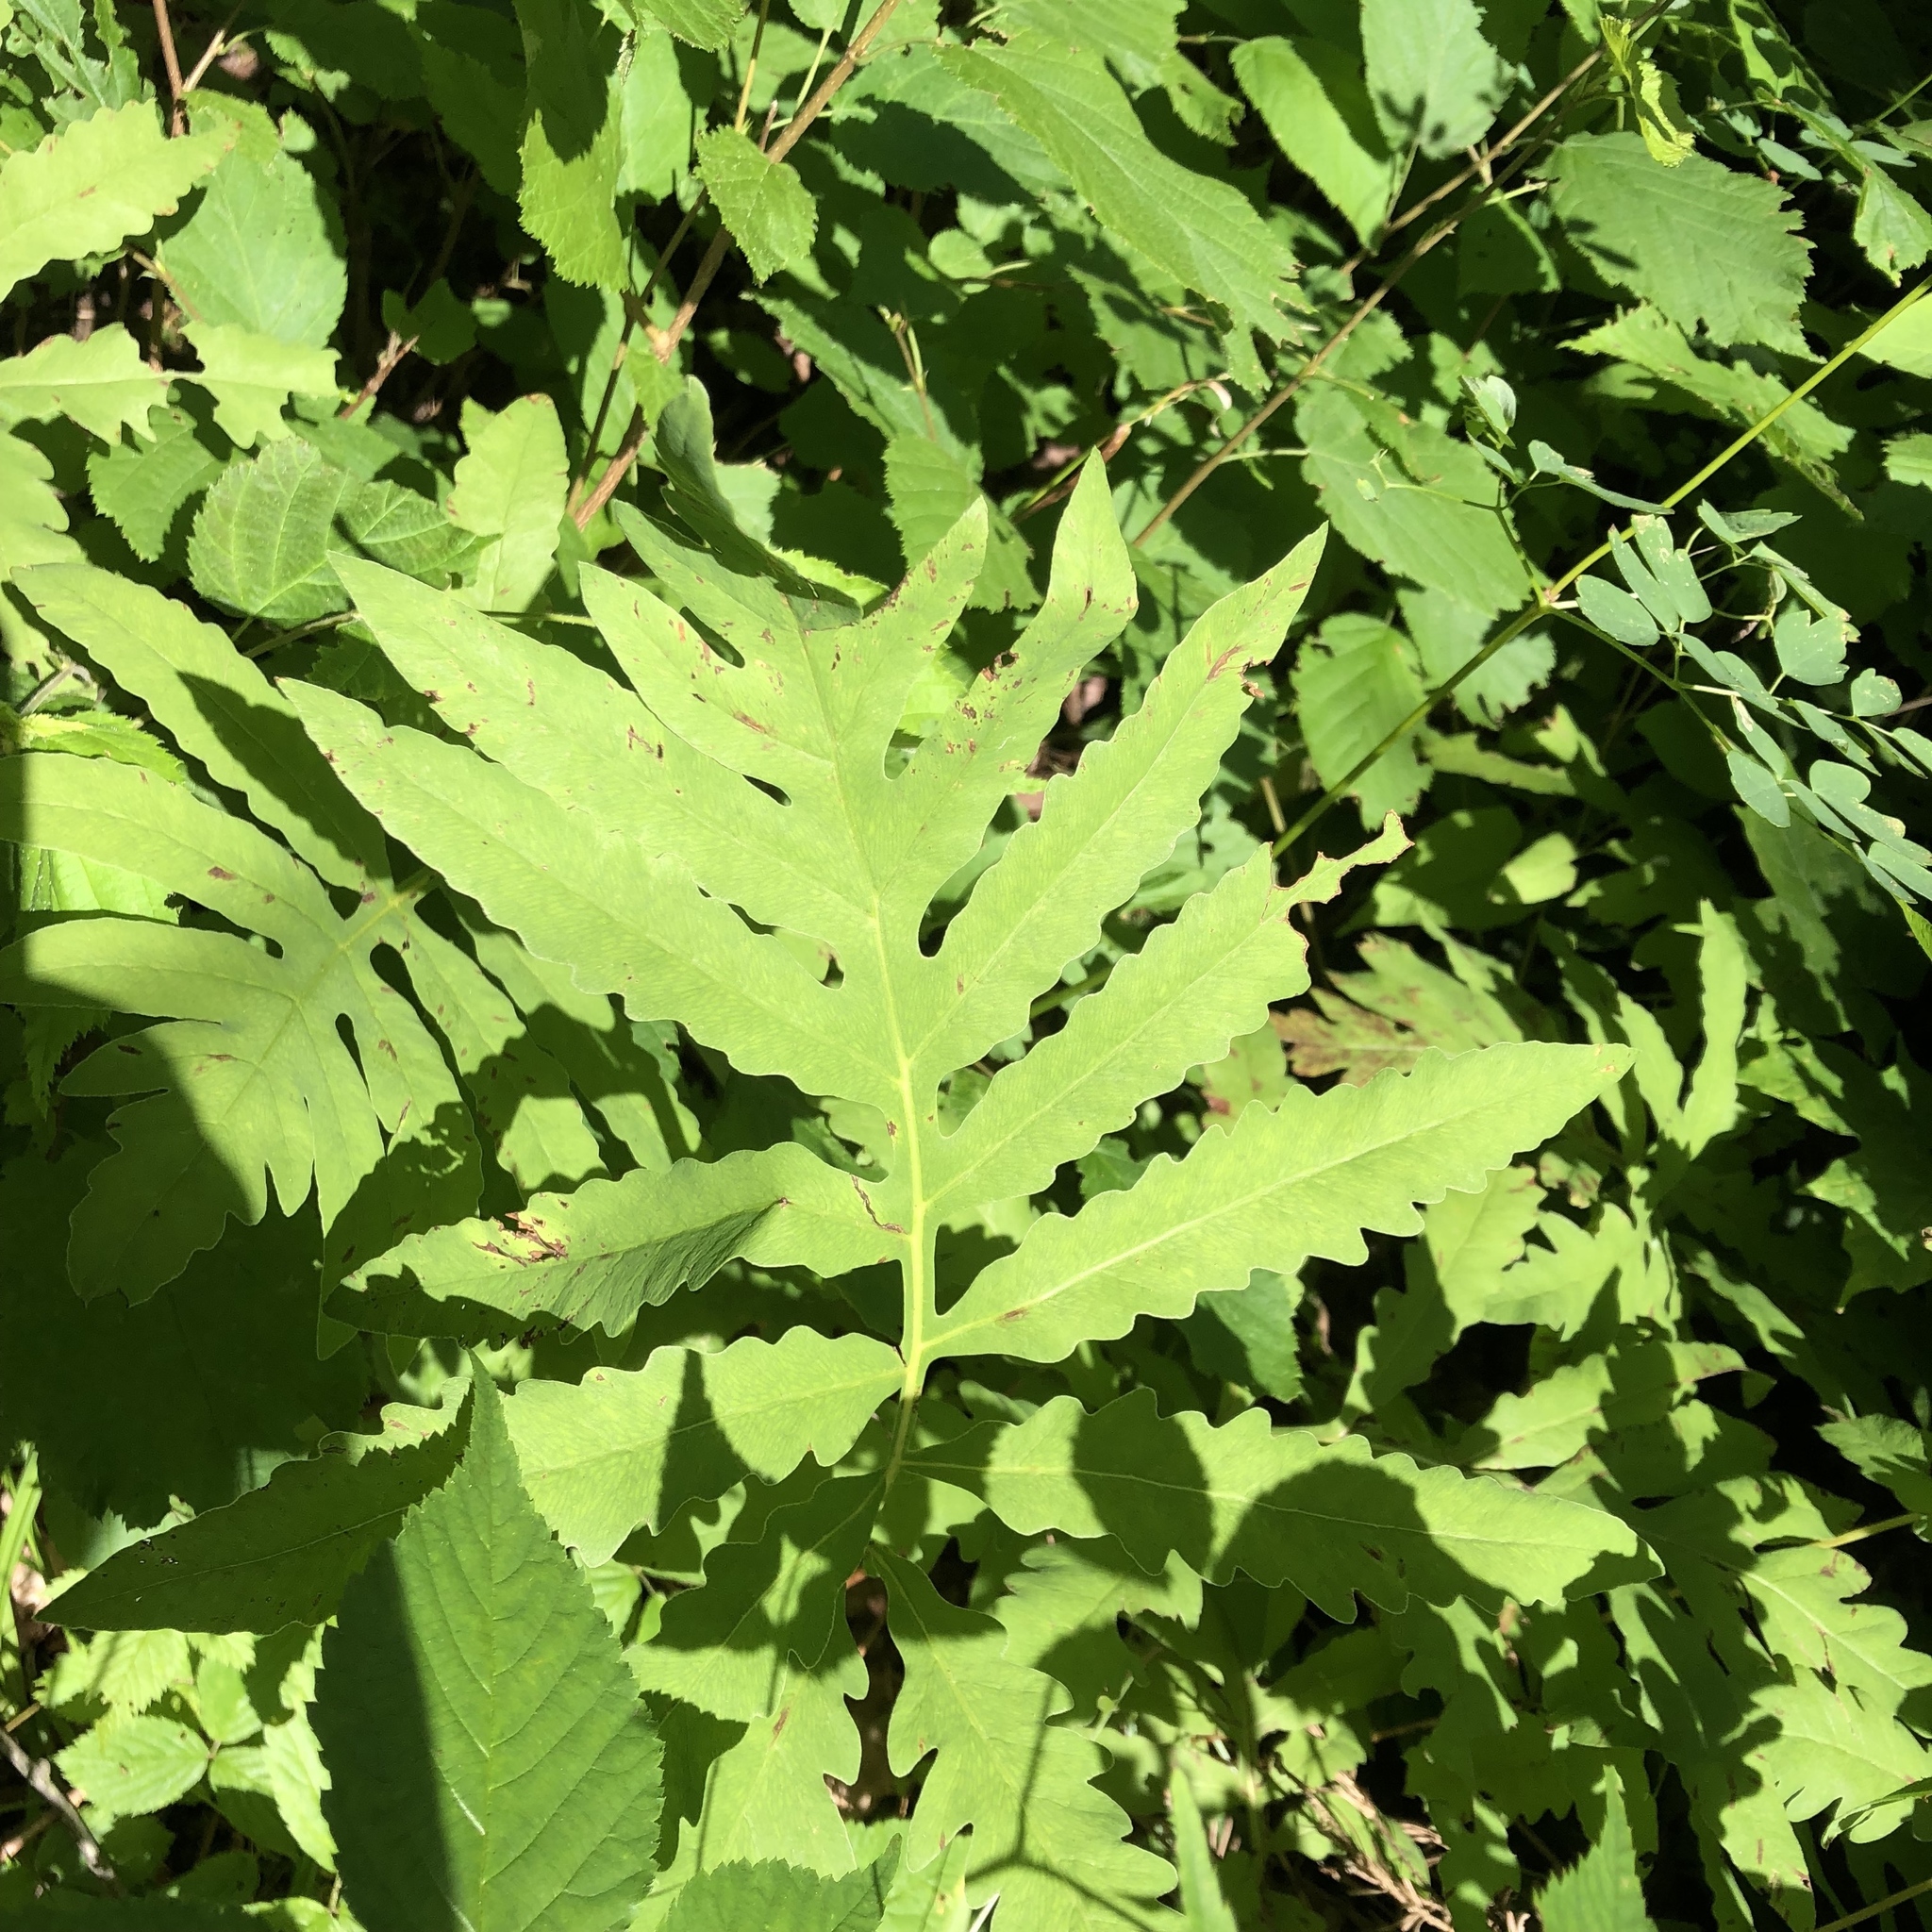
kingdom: Plantae
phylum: Tracheophyta
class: Polypodiopsida
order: Polypodiales
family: Onocleaceae
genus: Onoclea
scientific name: Onoclea sensibilis
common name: Sensitive fern
